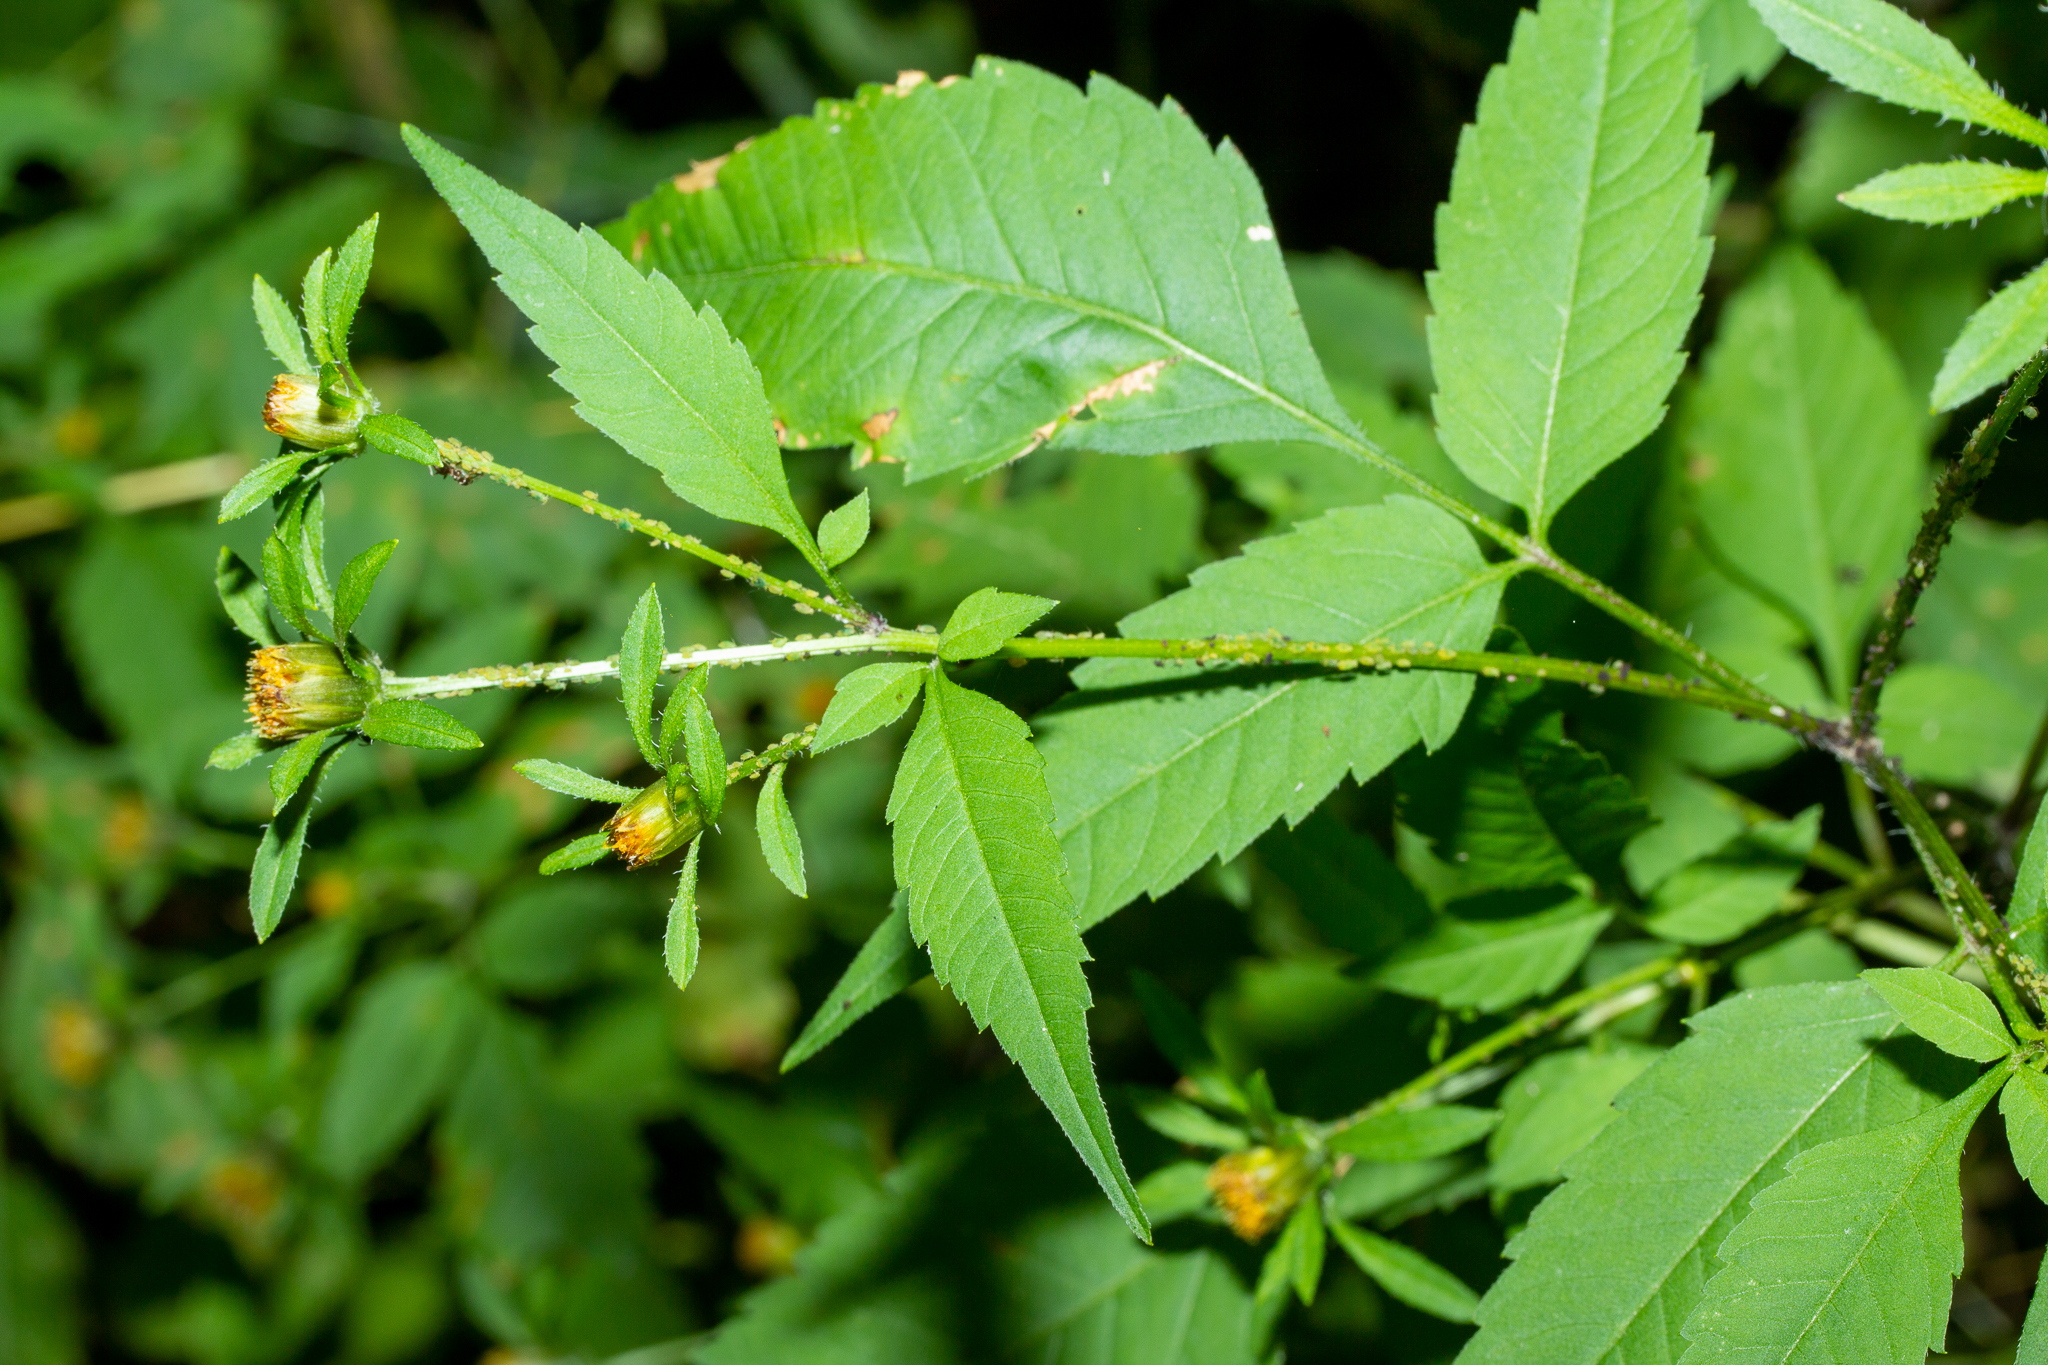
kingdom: Plantae
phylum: Tracheophyta
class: Magnoliopsida
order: Asterales
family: Asteraceae
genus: Bidens
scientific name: Bidens frondosa
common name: Beggarticks
